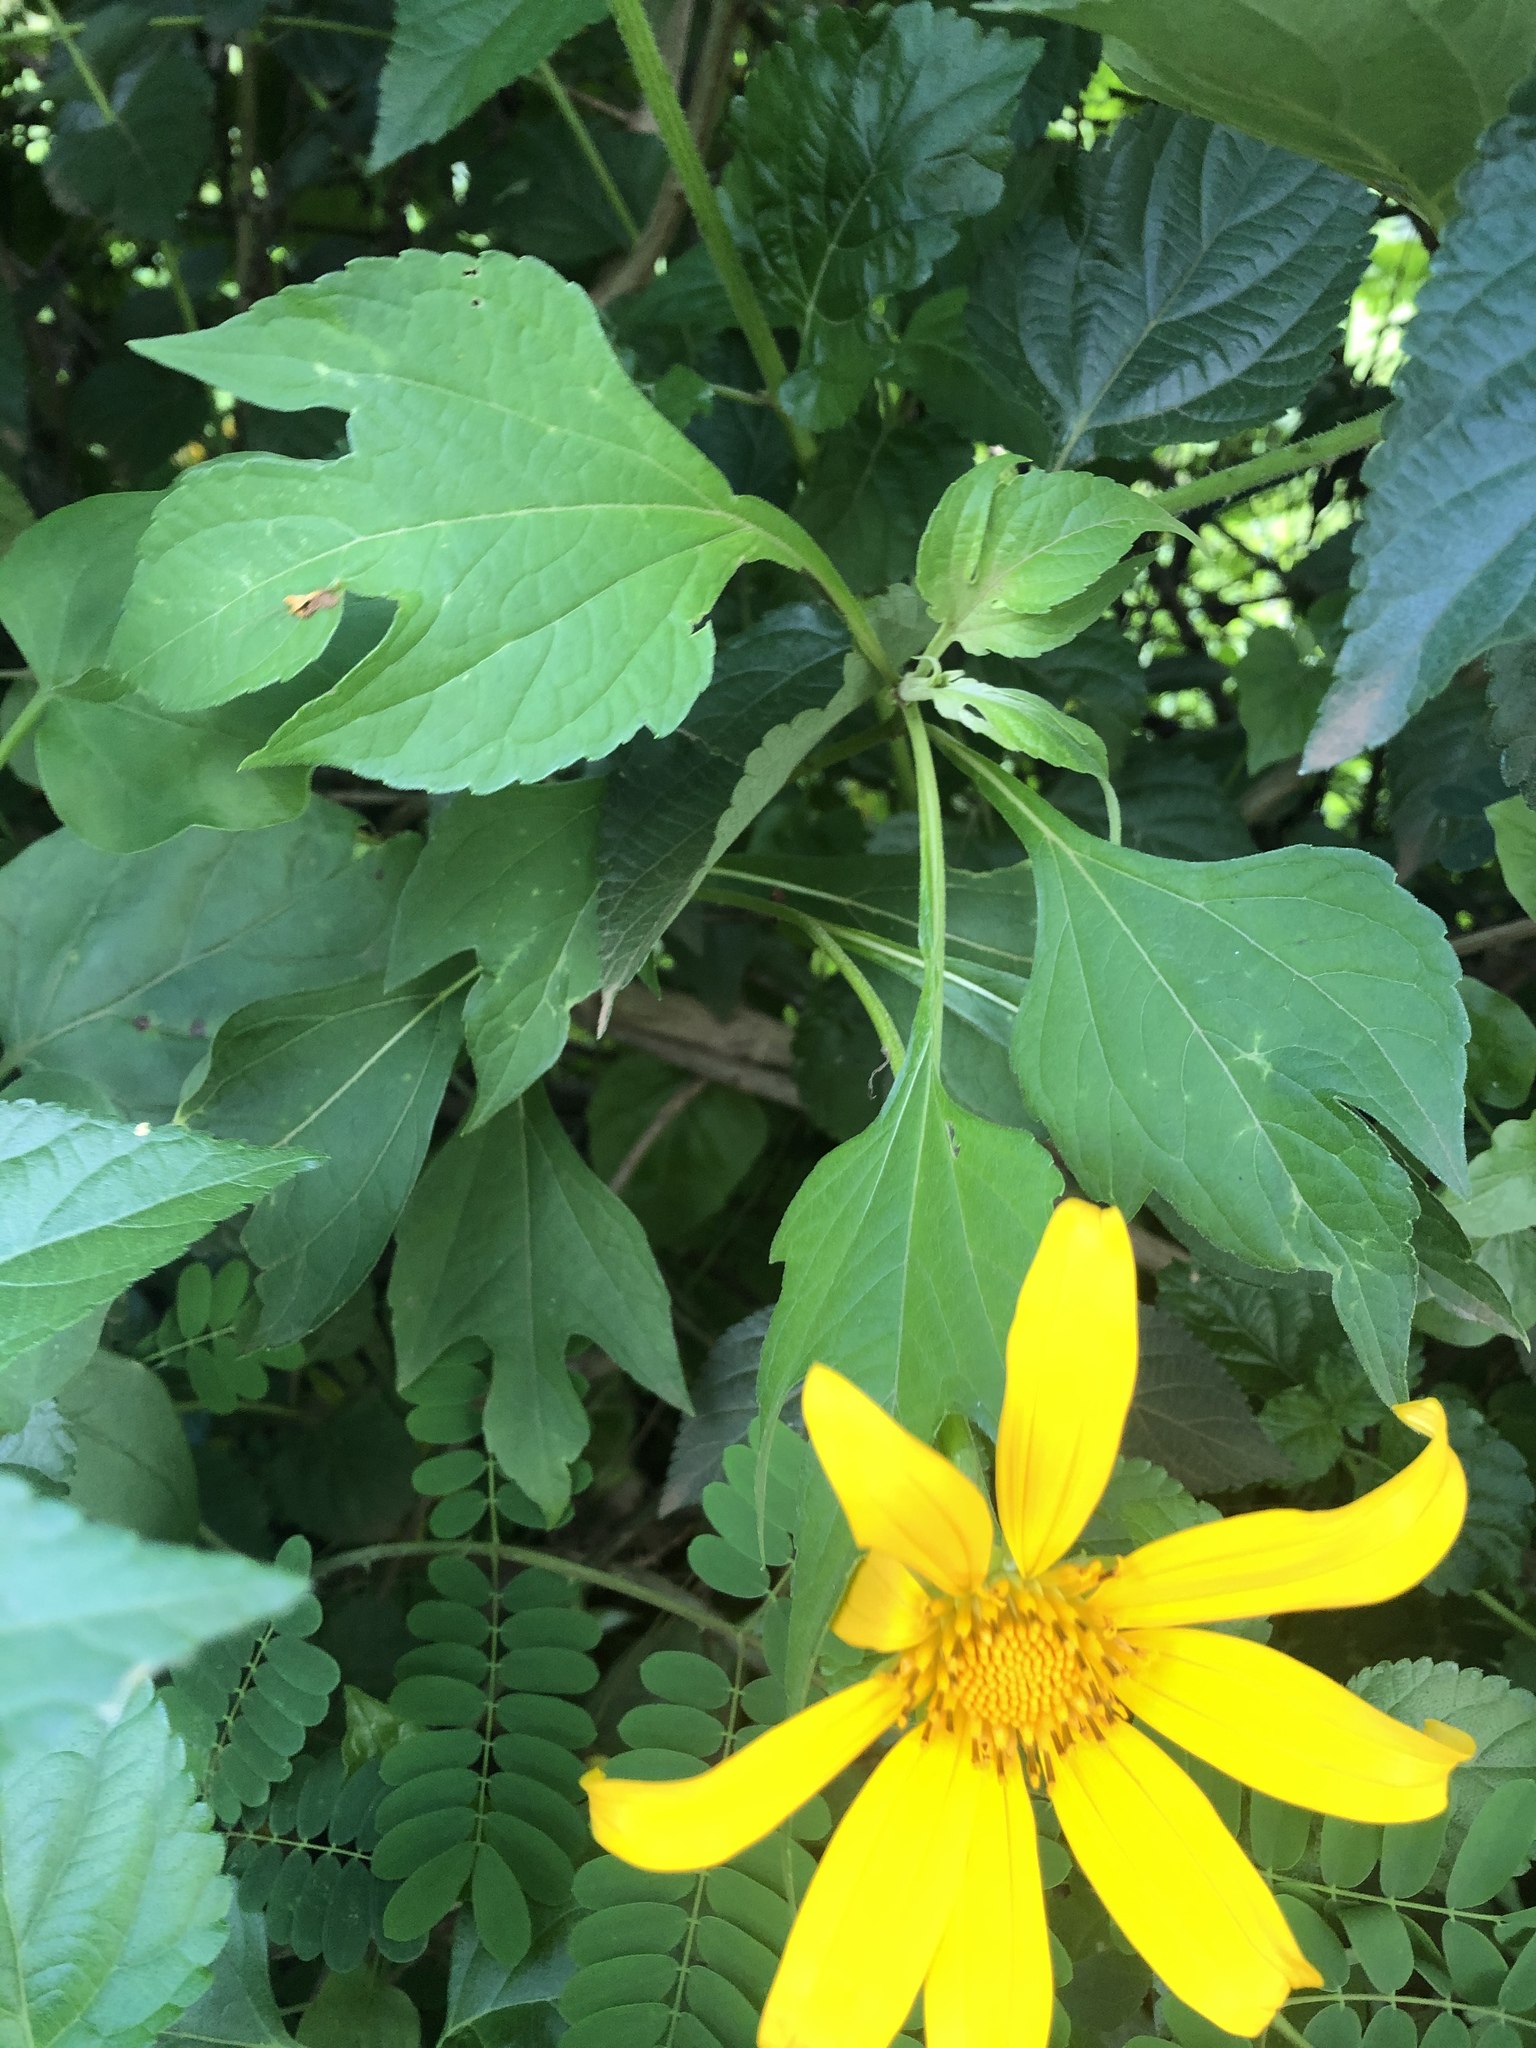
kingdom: Plantae
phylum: Tracheophyta
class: Magnoliopsida
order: Asterales
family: Asteraceae
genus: Tithonia
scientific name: Tithonia diversifolia
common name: Tree marigold
